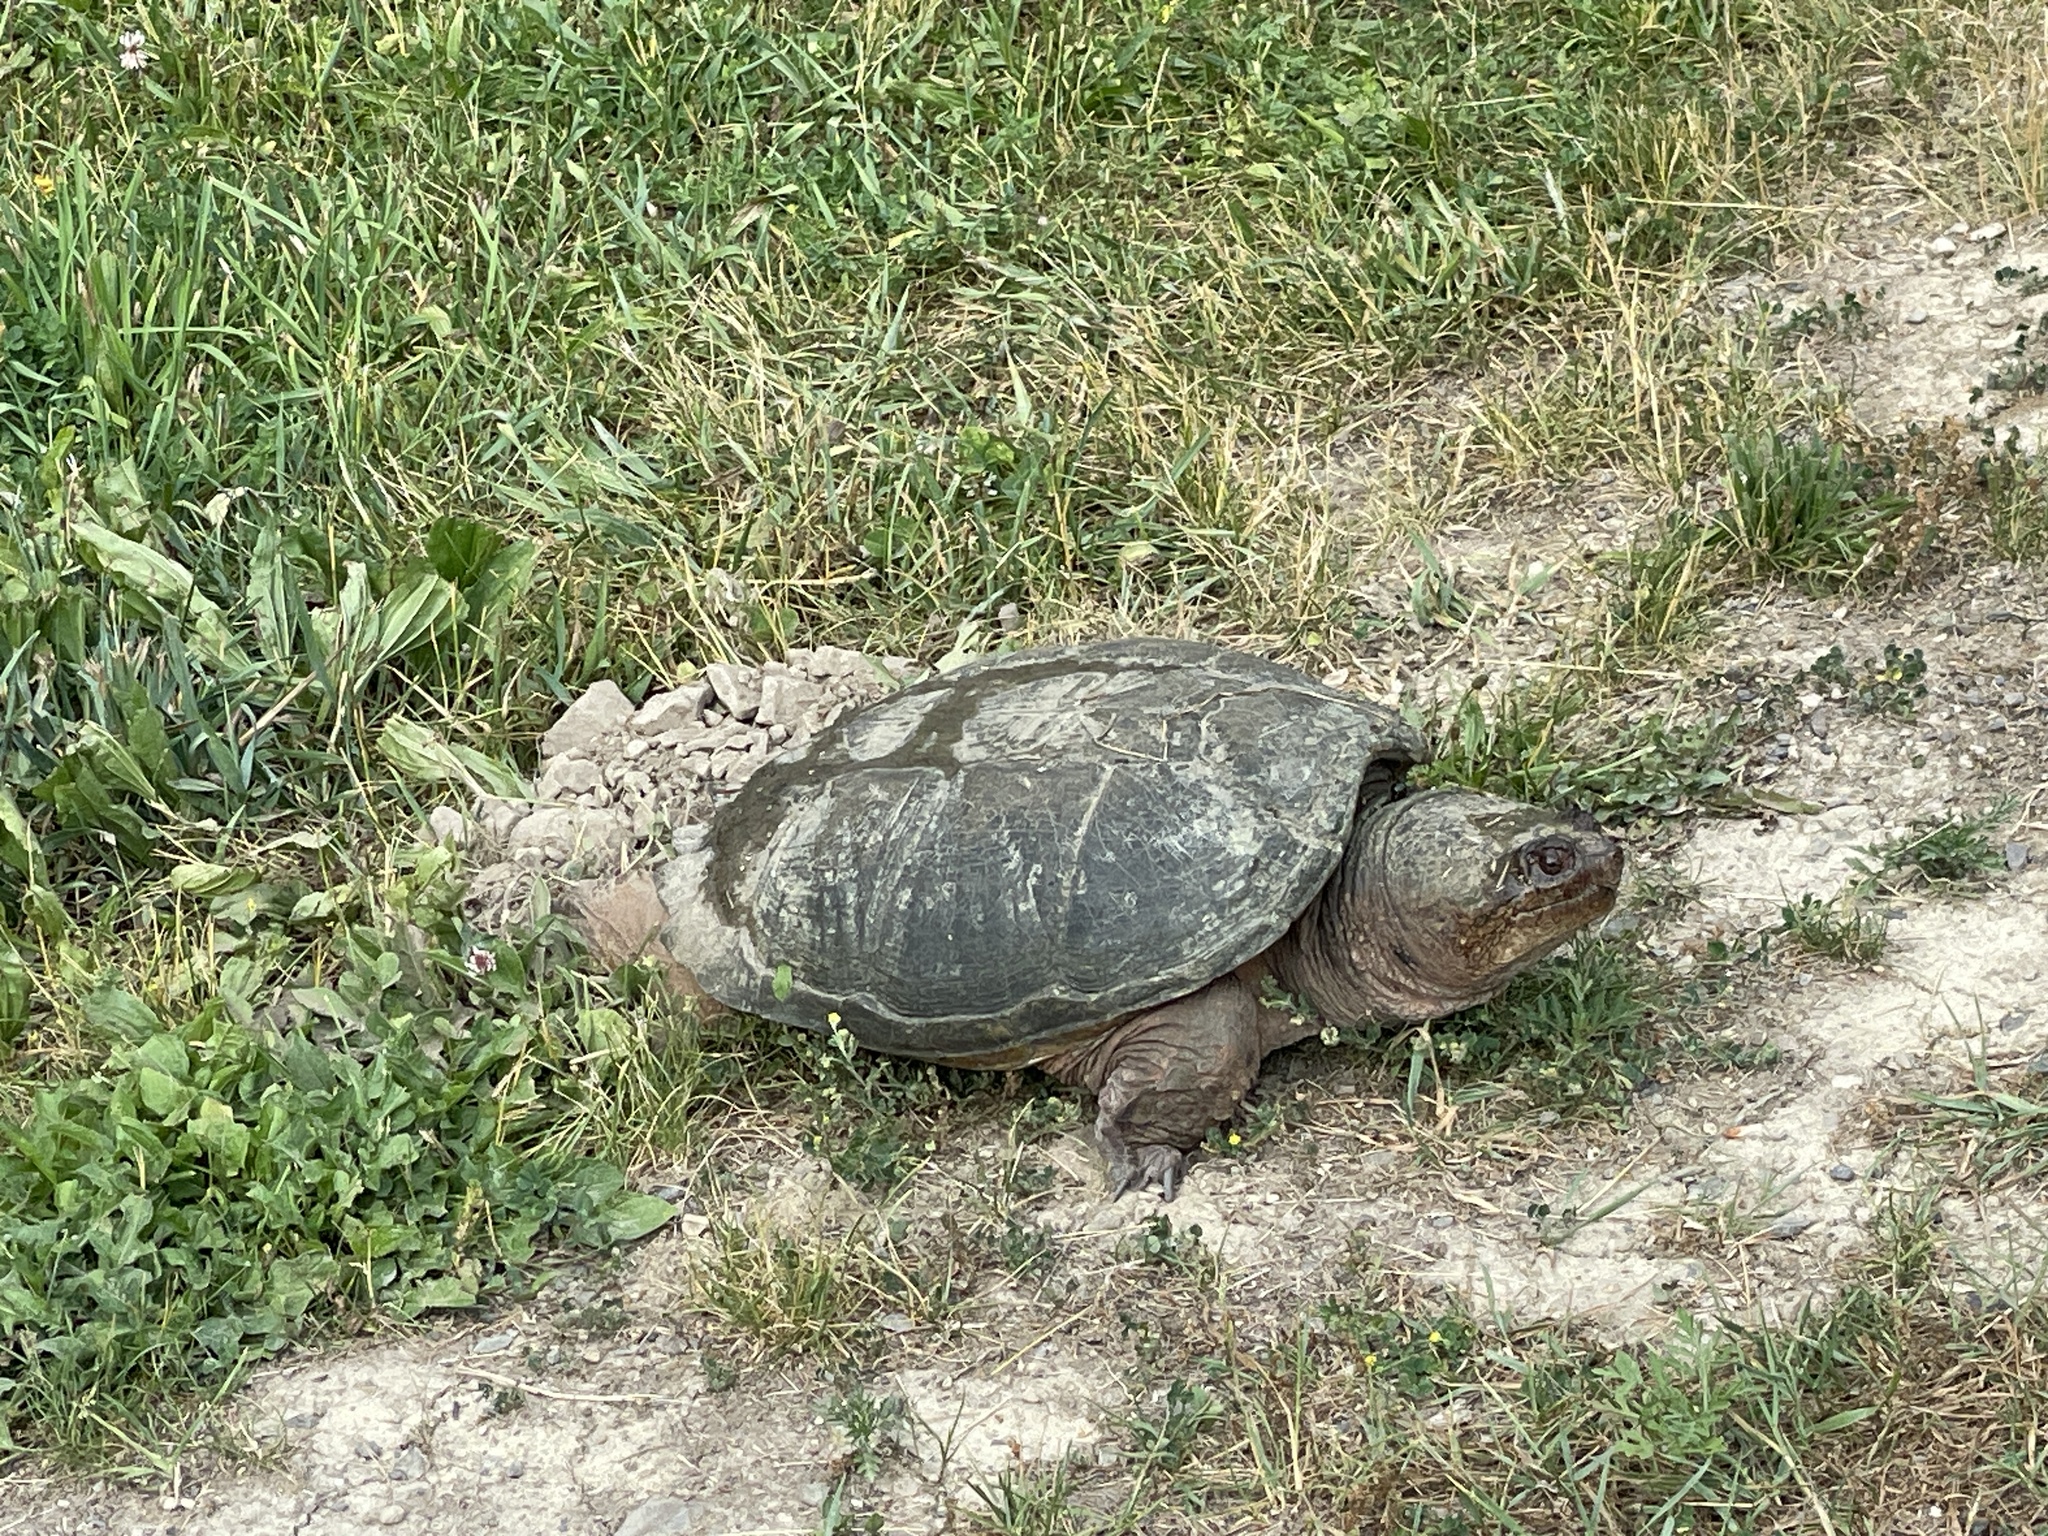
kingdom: Animalia
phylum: Chordata
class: Testudines
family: Chelydridae
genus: Chelydra
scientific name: Chelydra serpentina
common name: Common snapping turtle
